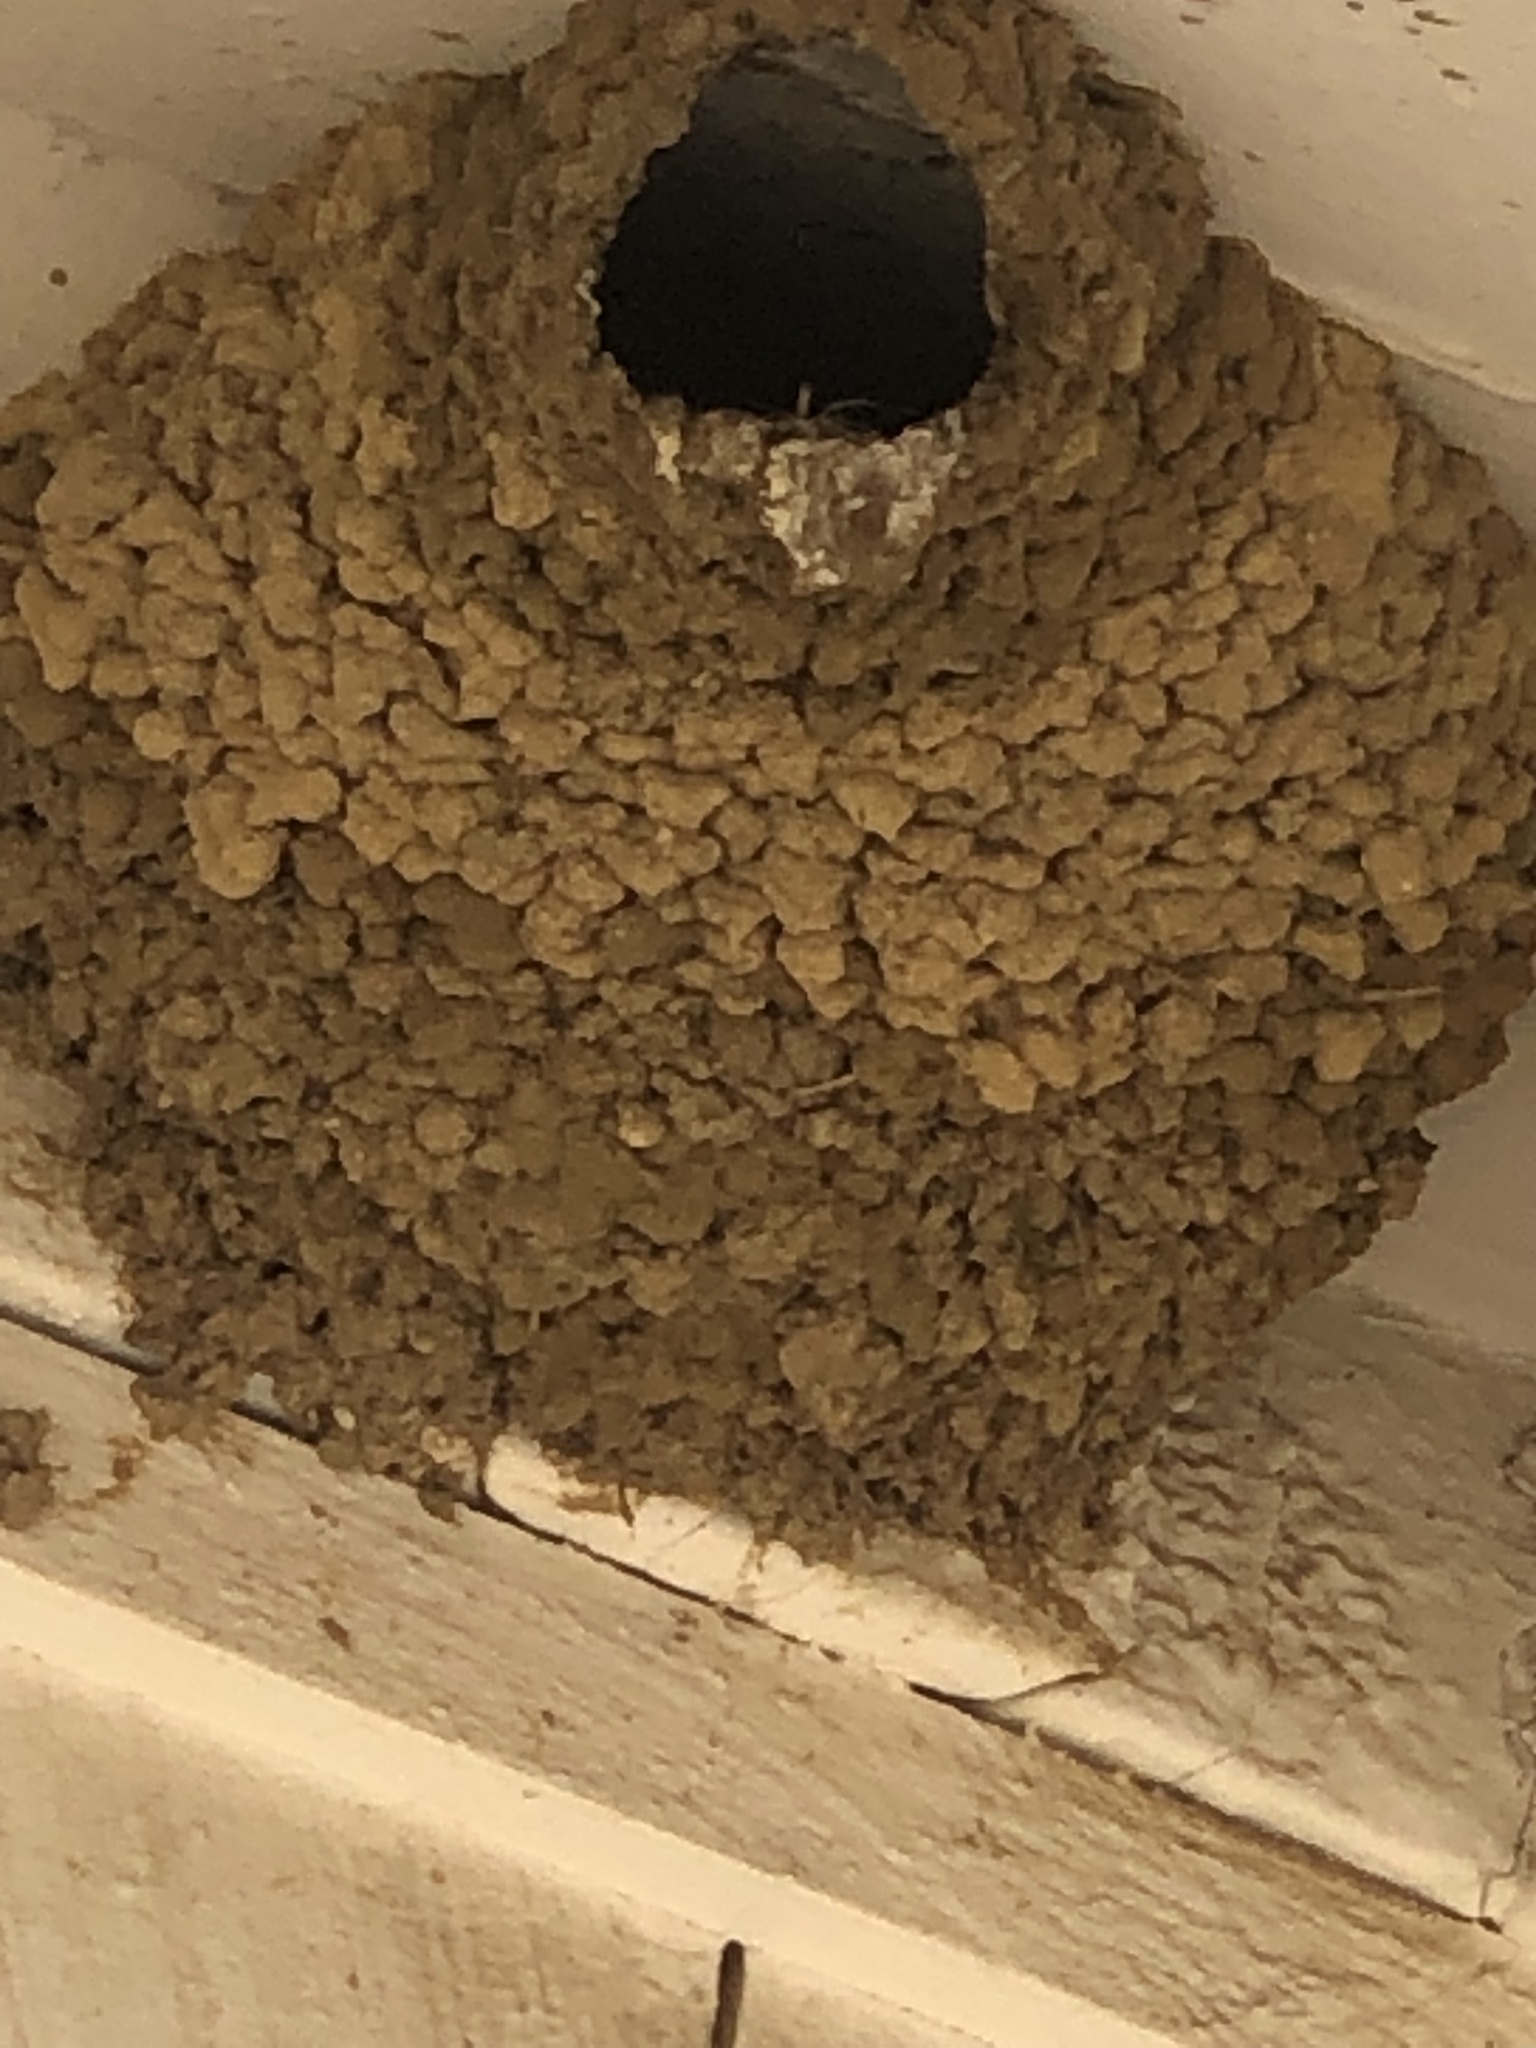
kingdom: Animalia
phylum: Chordata
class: Aves
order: Passeriformes
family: Hirundinidae
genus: Petrochelidon
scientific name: Petrochelidon pyrrhonota
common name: American cliff swallow
